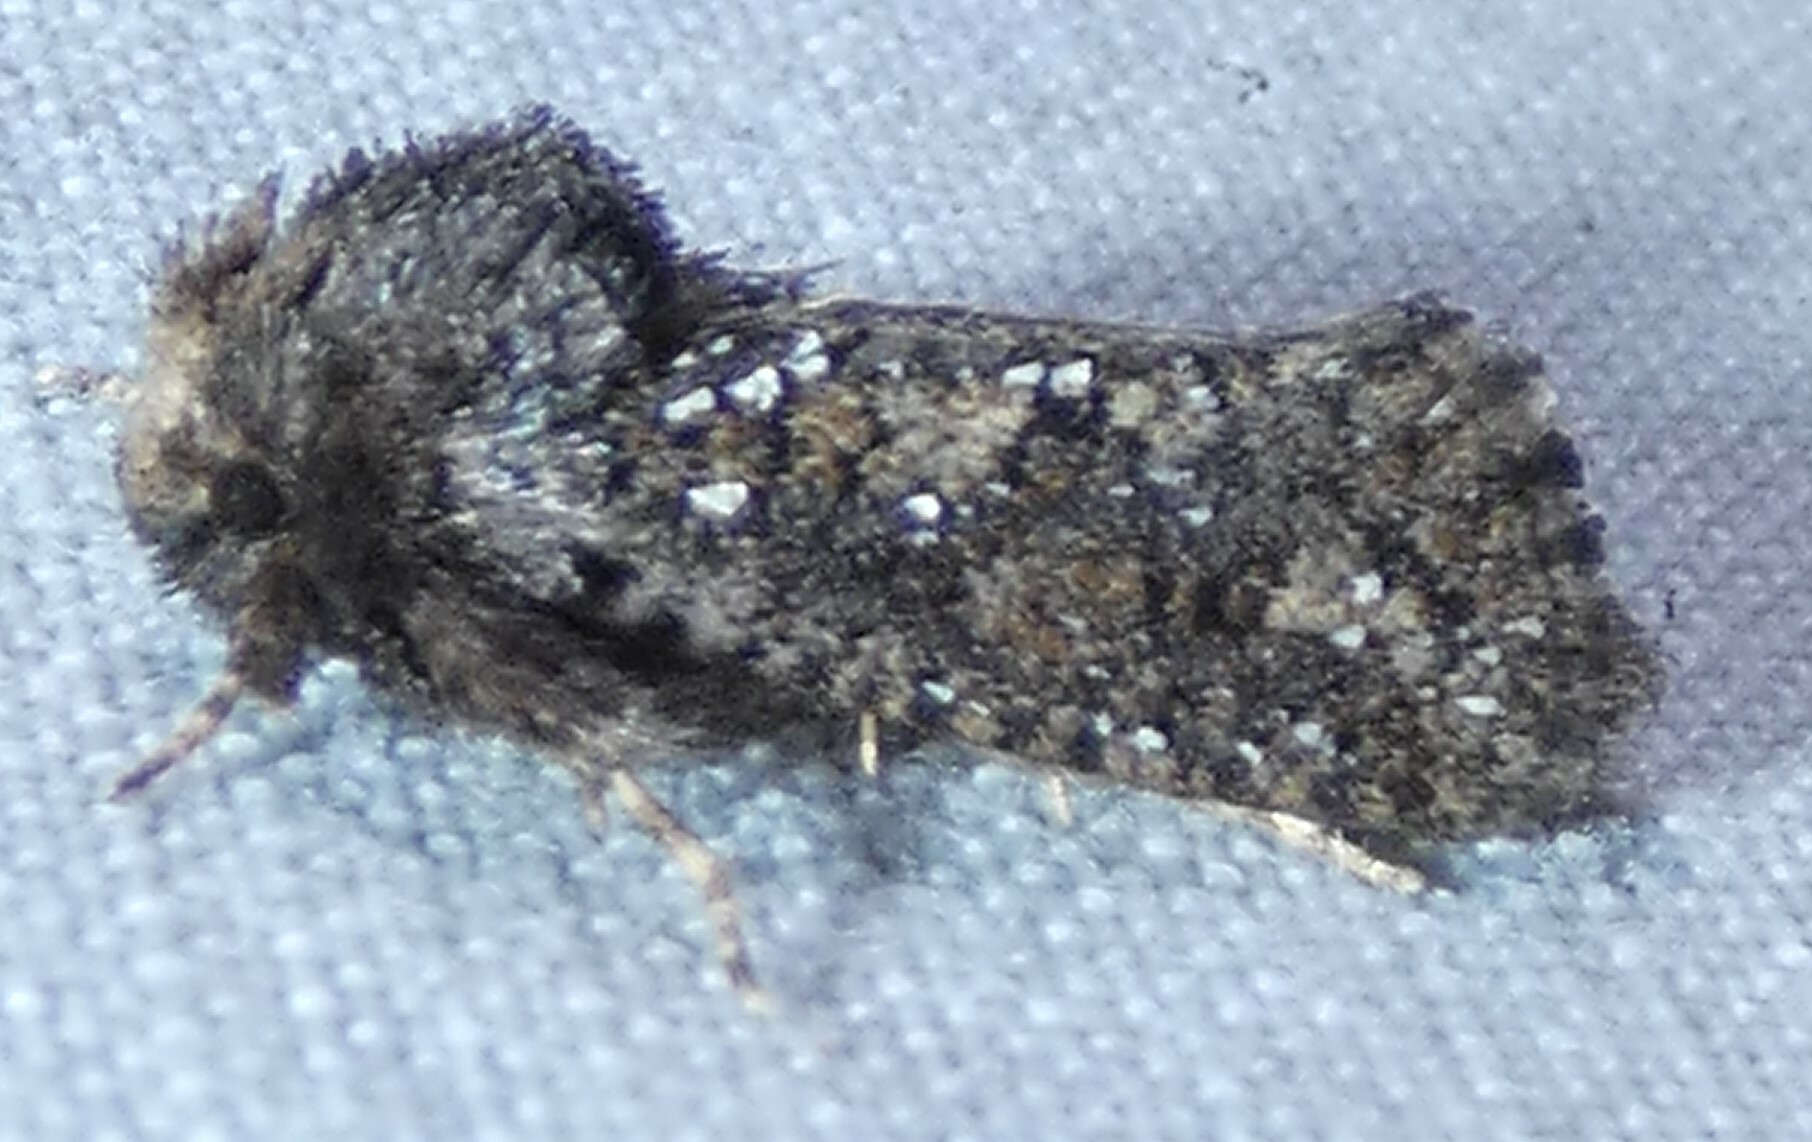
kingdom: Animalia
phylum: Arthropoda
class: Insecta
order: Lepidoptera
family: Tineidae
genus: Acrolophus
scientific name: Acrolophus arcanella
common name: Arcane grass tubeworm moth
